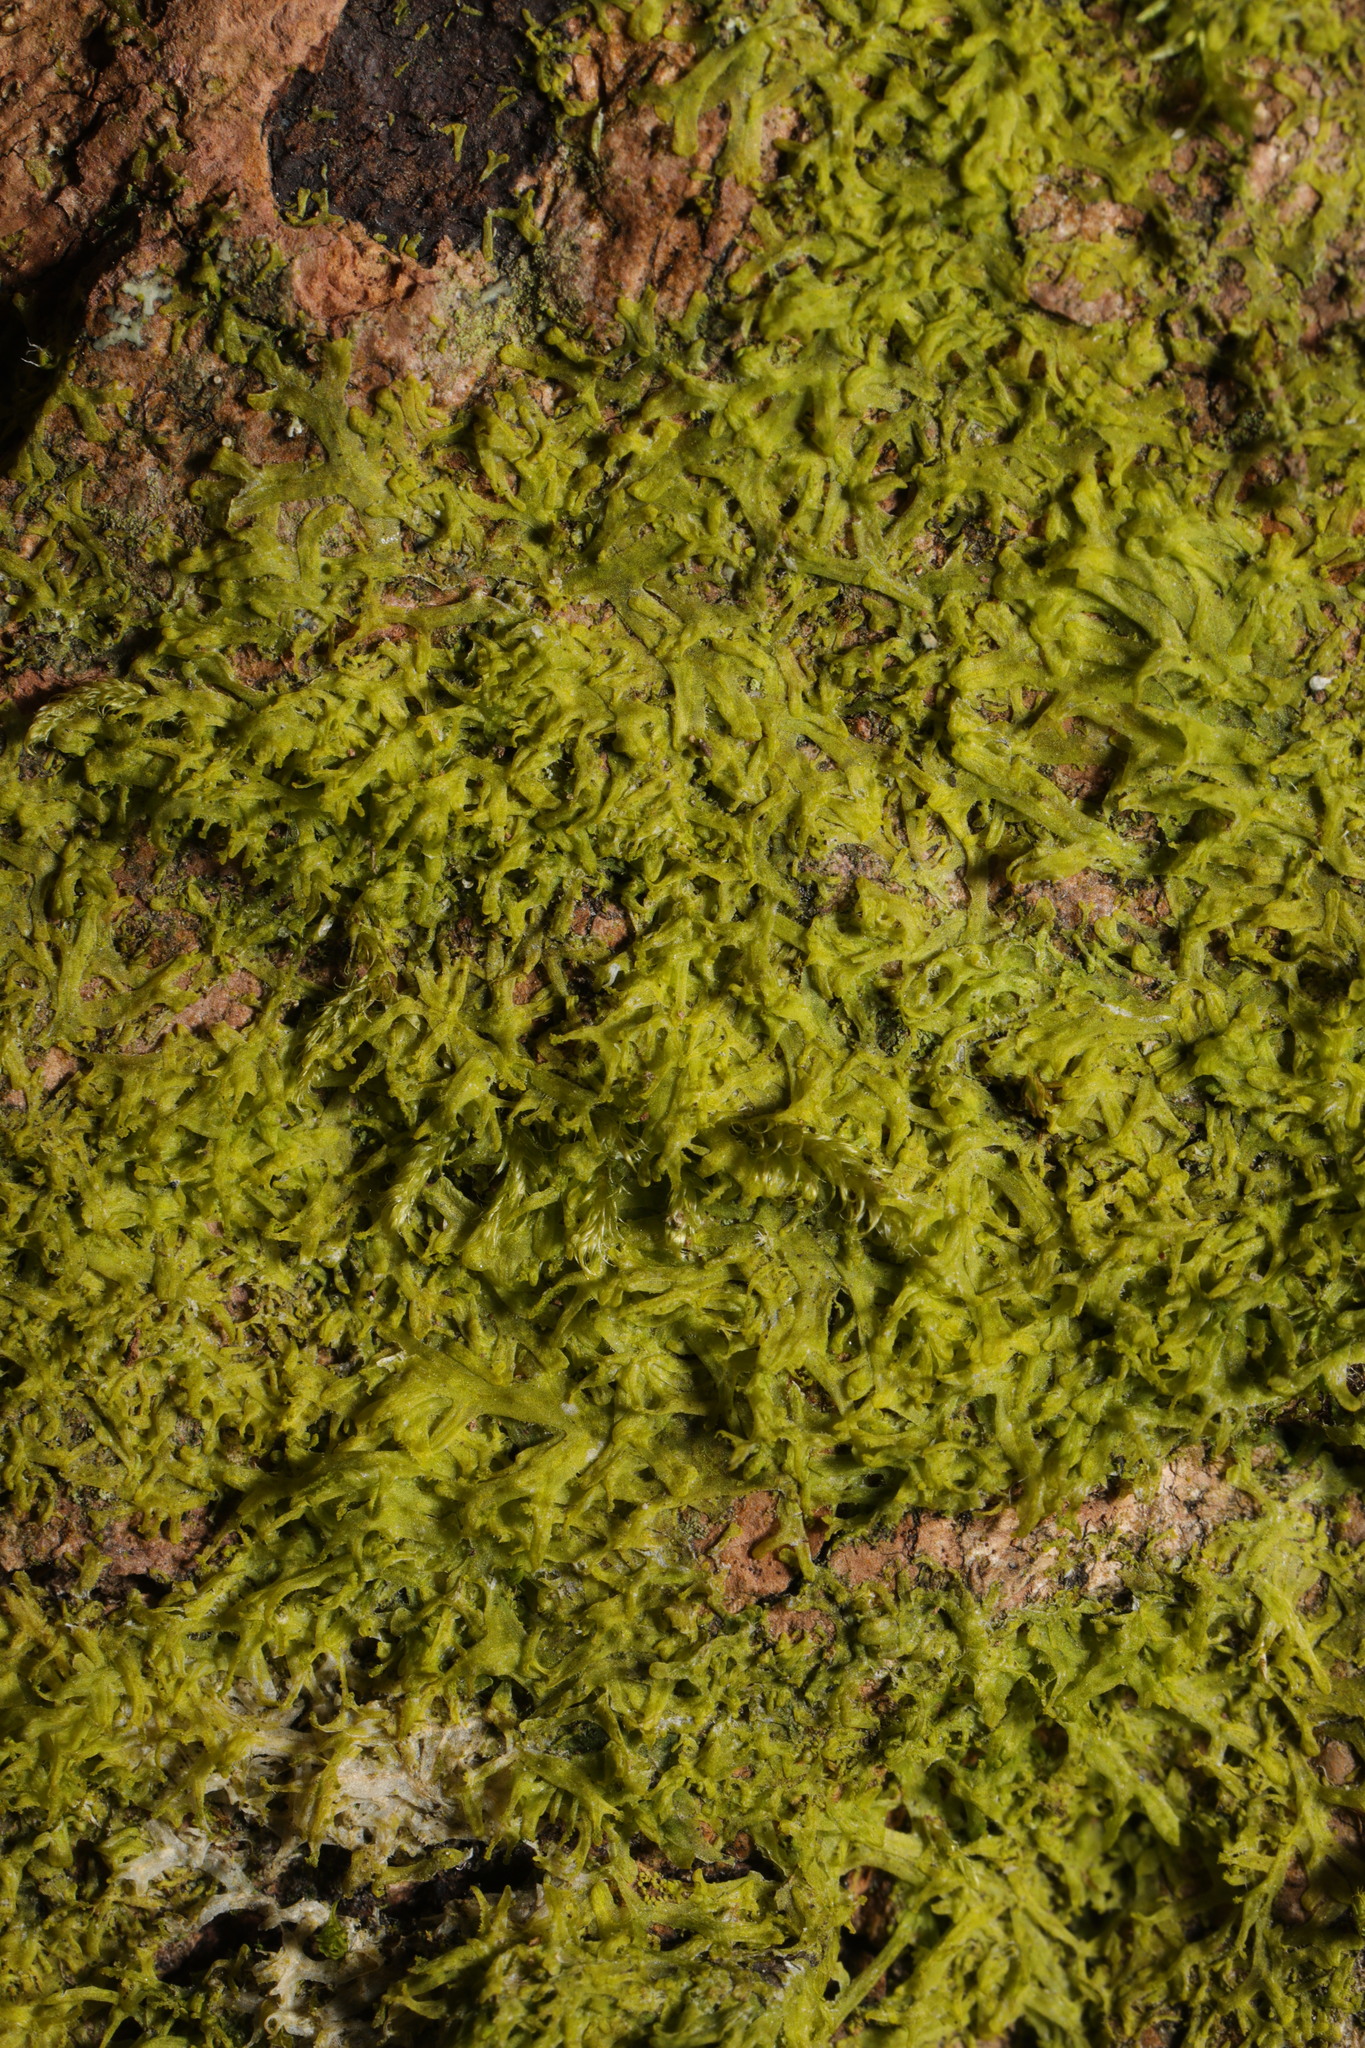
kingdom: Plantae
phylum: Marchantiophyta
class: Jungermanniopsida
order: Metzgeriales
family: Metzgeriaceae
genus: Metzgeria
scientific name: Metzgeria violacea
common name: Blueish veilwort
